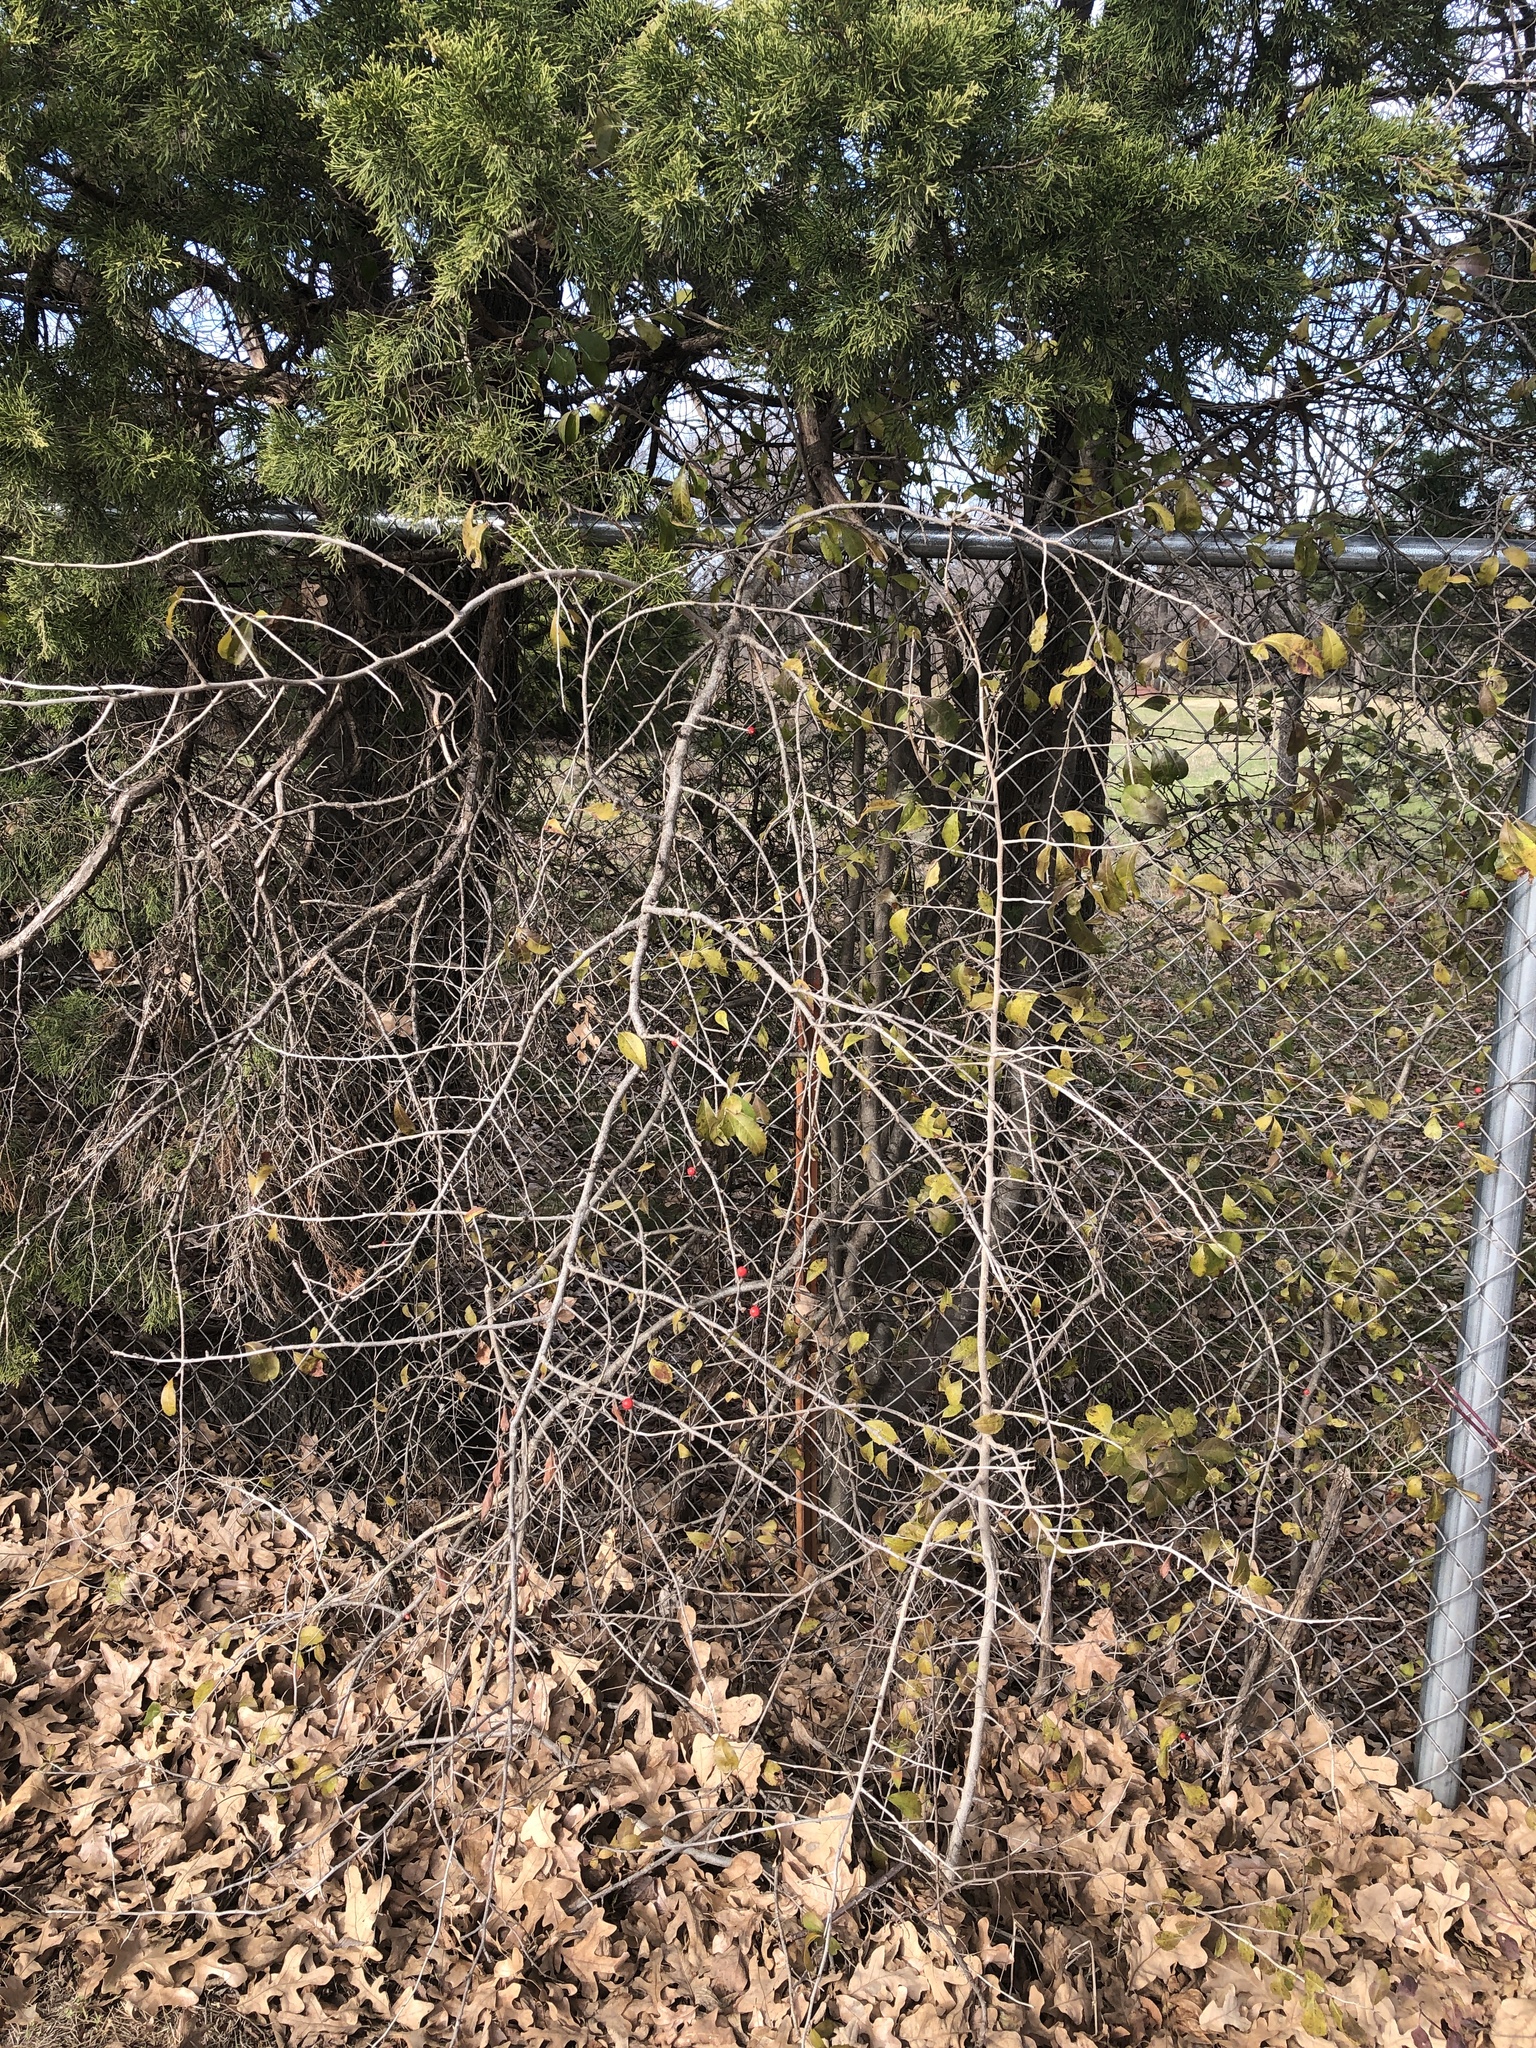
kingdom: Plantae
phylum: Tracheophyta
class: Magnoliopsida
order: Aquifoliales
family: Aquifoliaceae
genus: Ilex
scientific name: Ilex decidua
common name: Possum-haw
